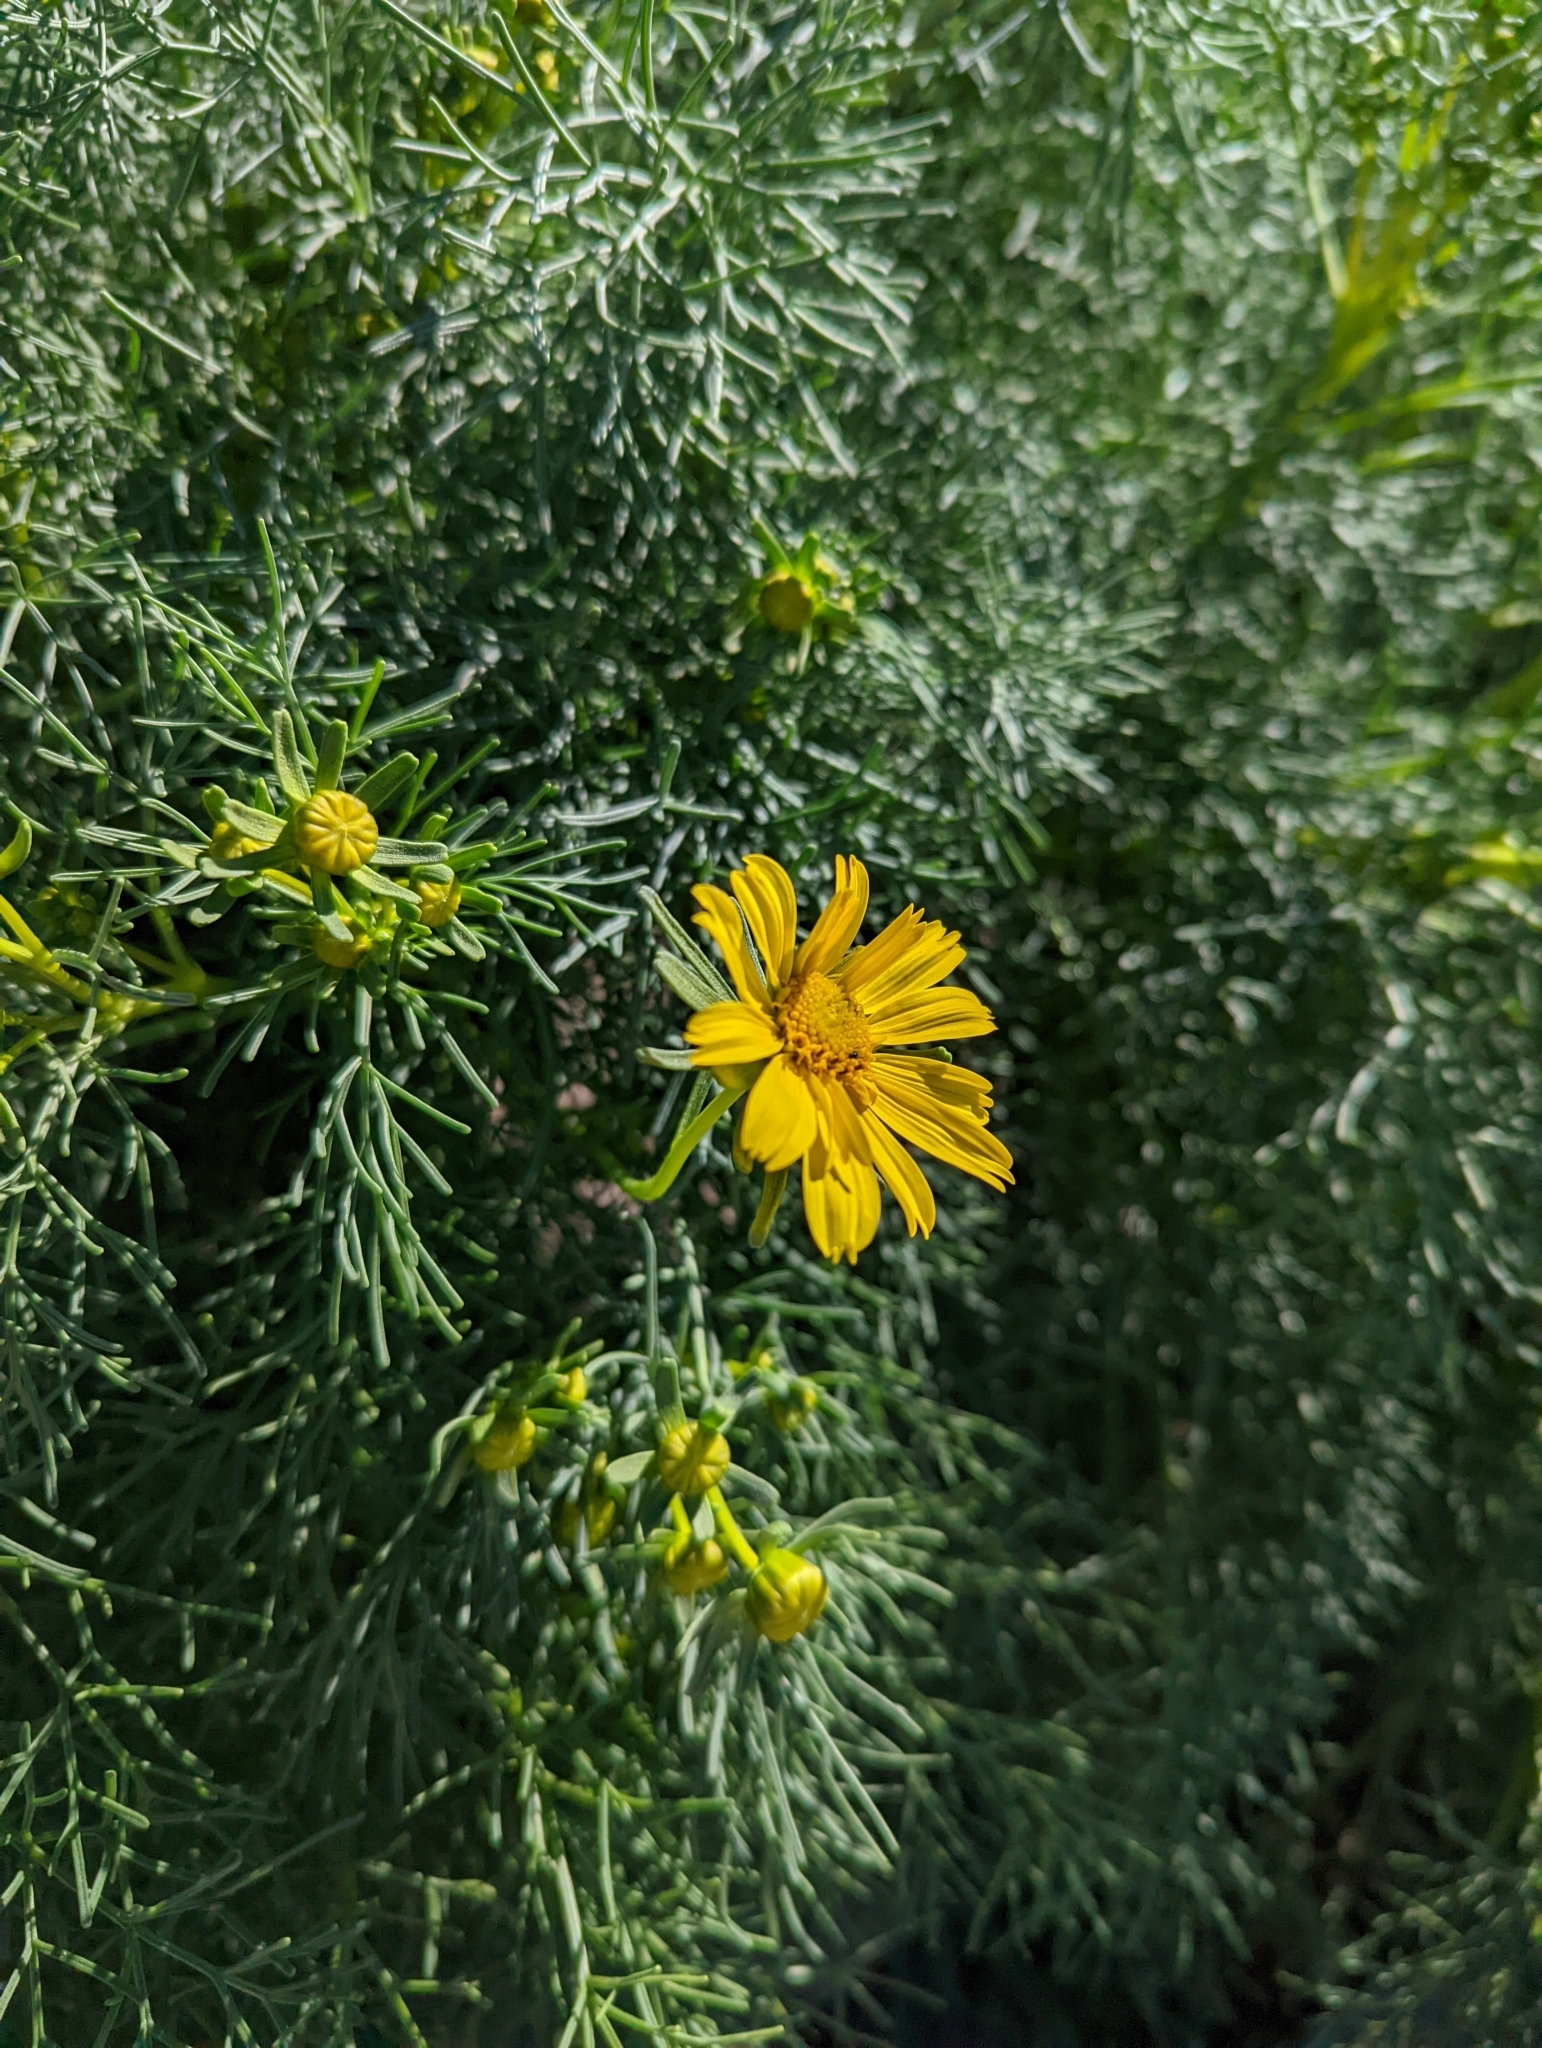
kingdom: Plantae
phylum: Tracheophyta
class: Magnoliopsida
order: Asterales
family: Asteraceae
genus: Coreopsis
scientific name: Coreopsis gigantea
